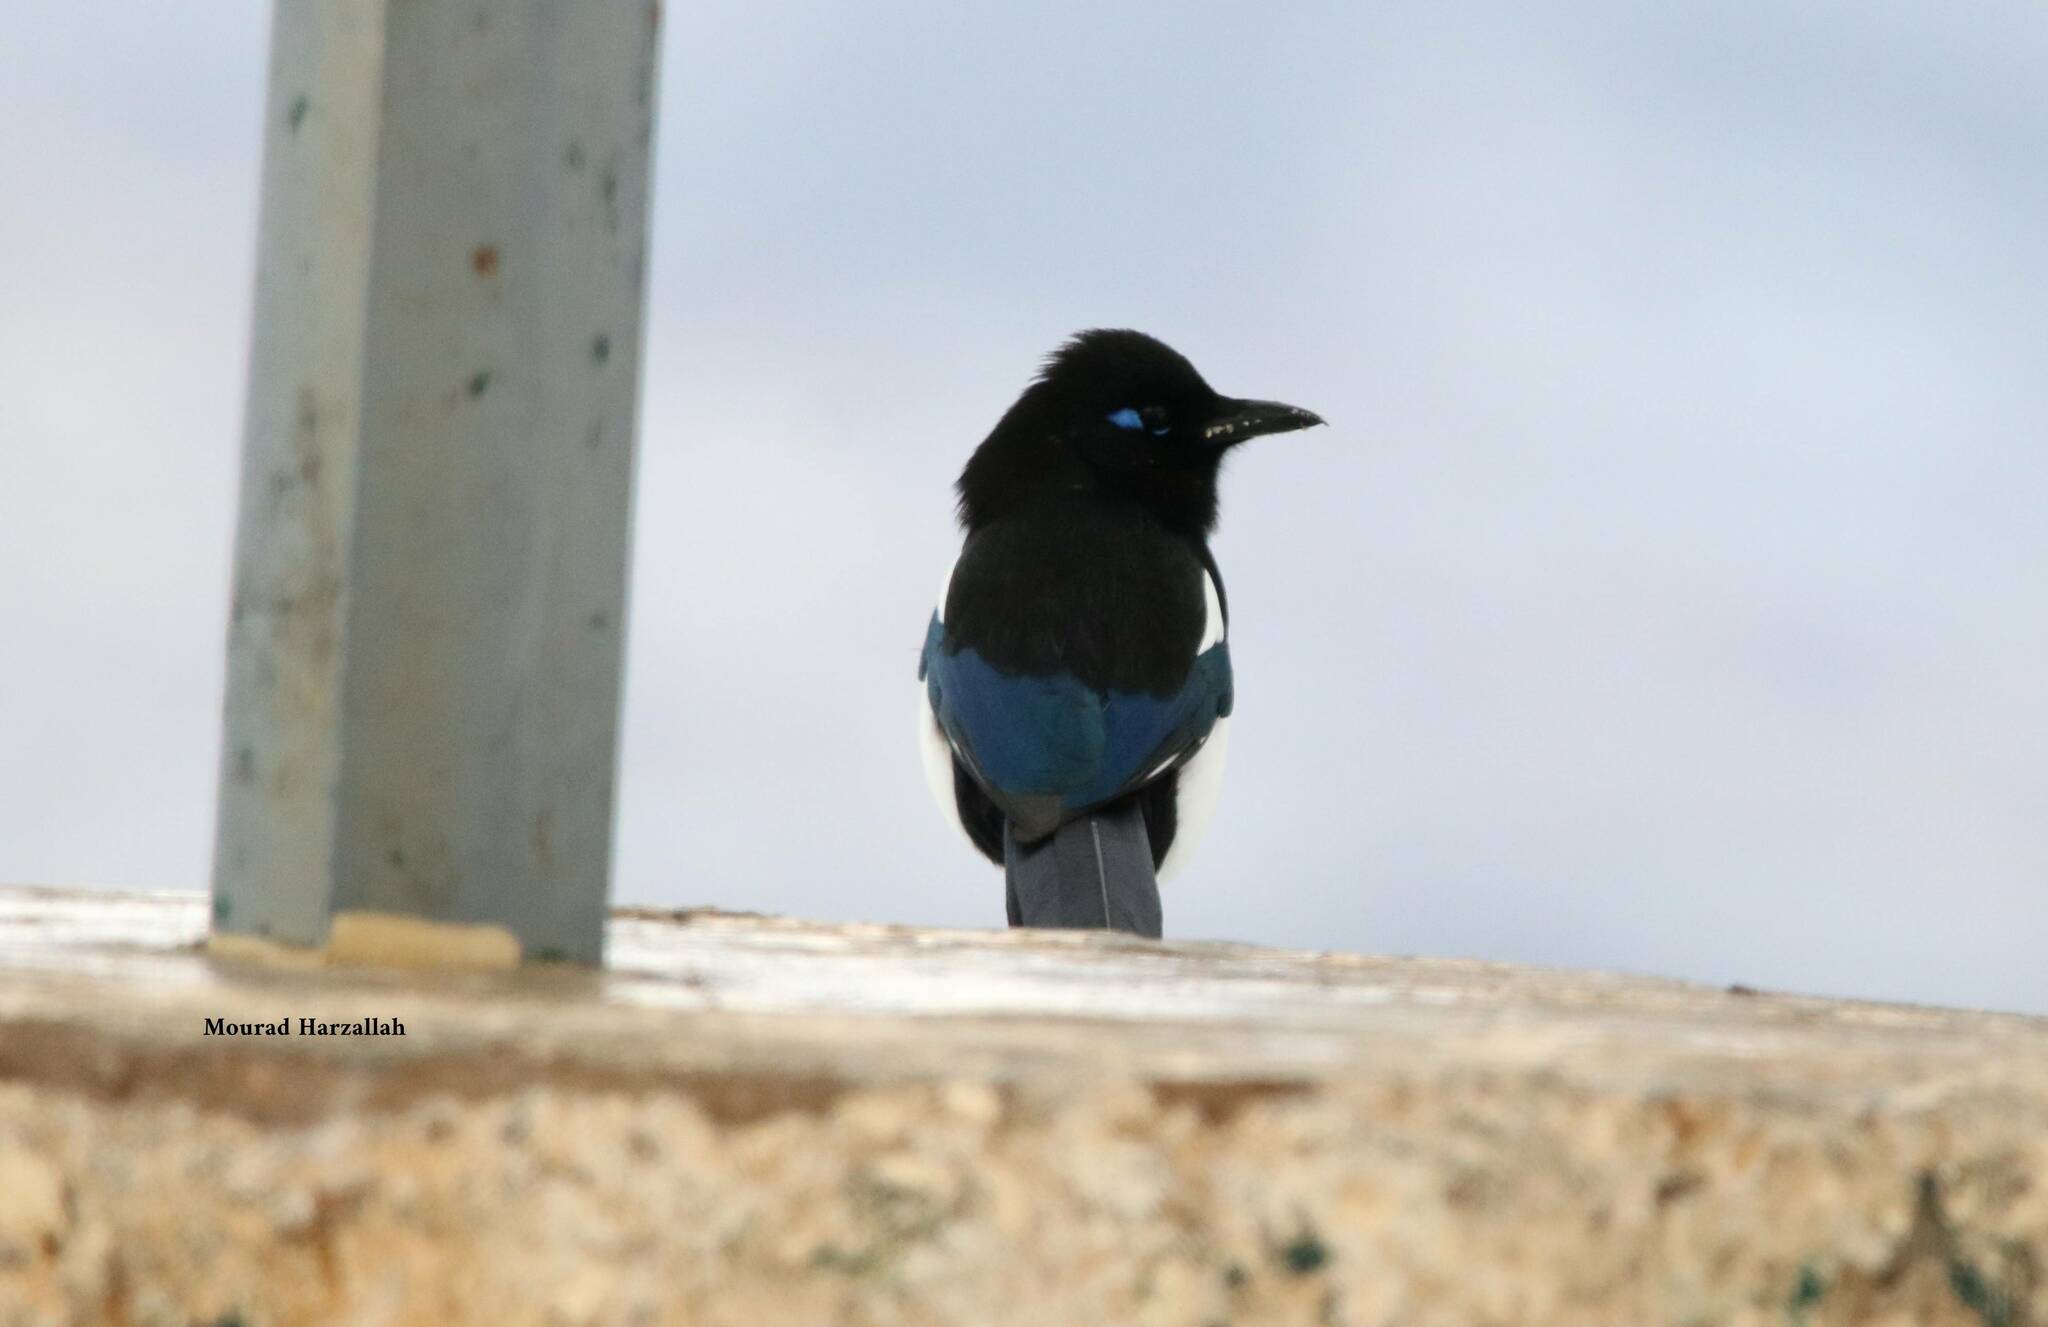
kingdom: Animalia
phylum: Chordata
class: Aves
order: Passeriformes
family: Corvidae
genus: Pica
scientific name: Pica mauritanica
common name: Maghreb magpie
